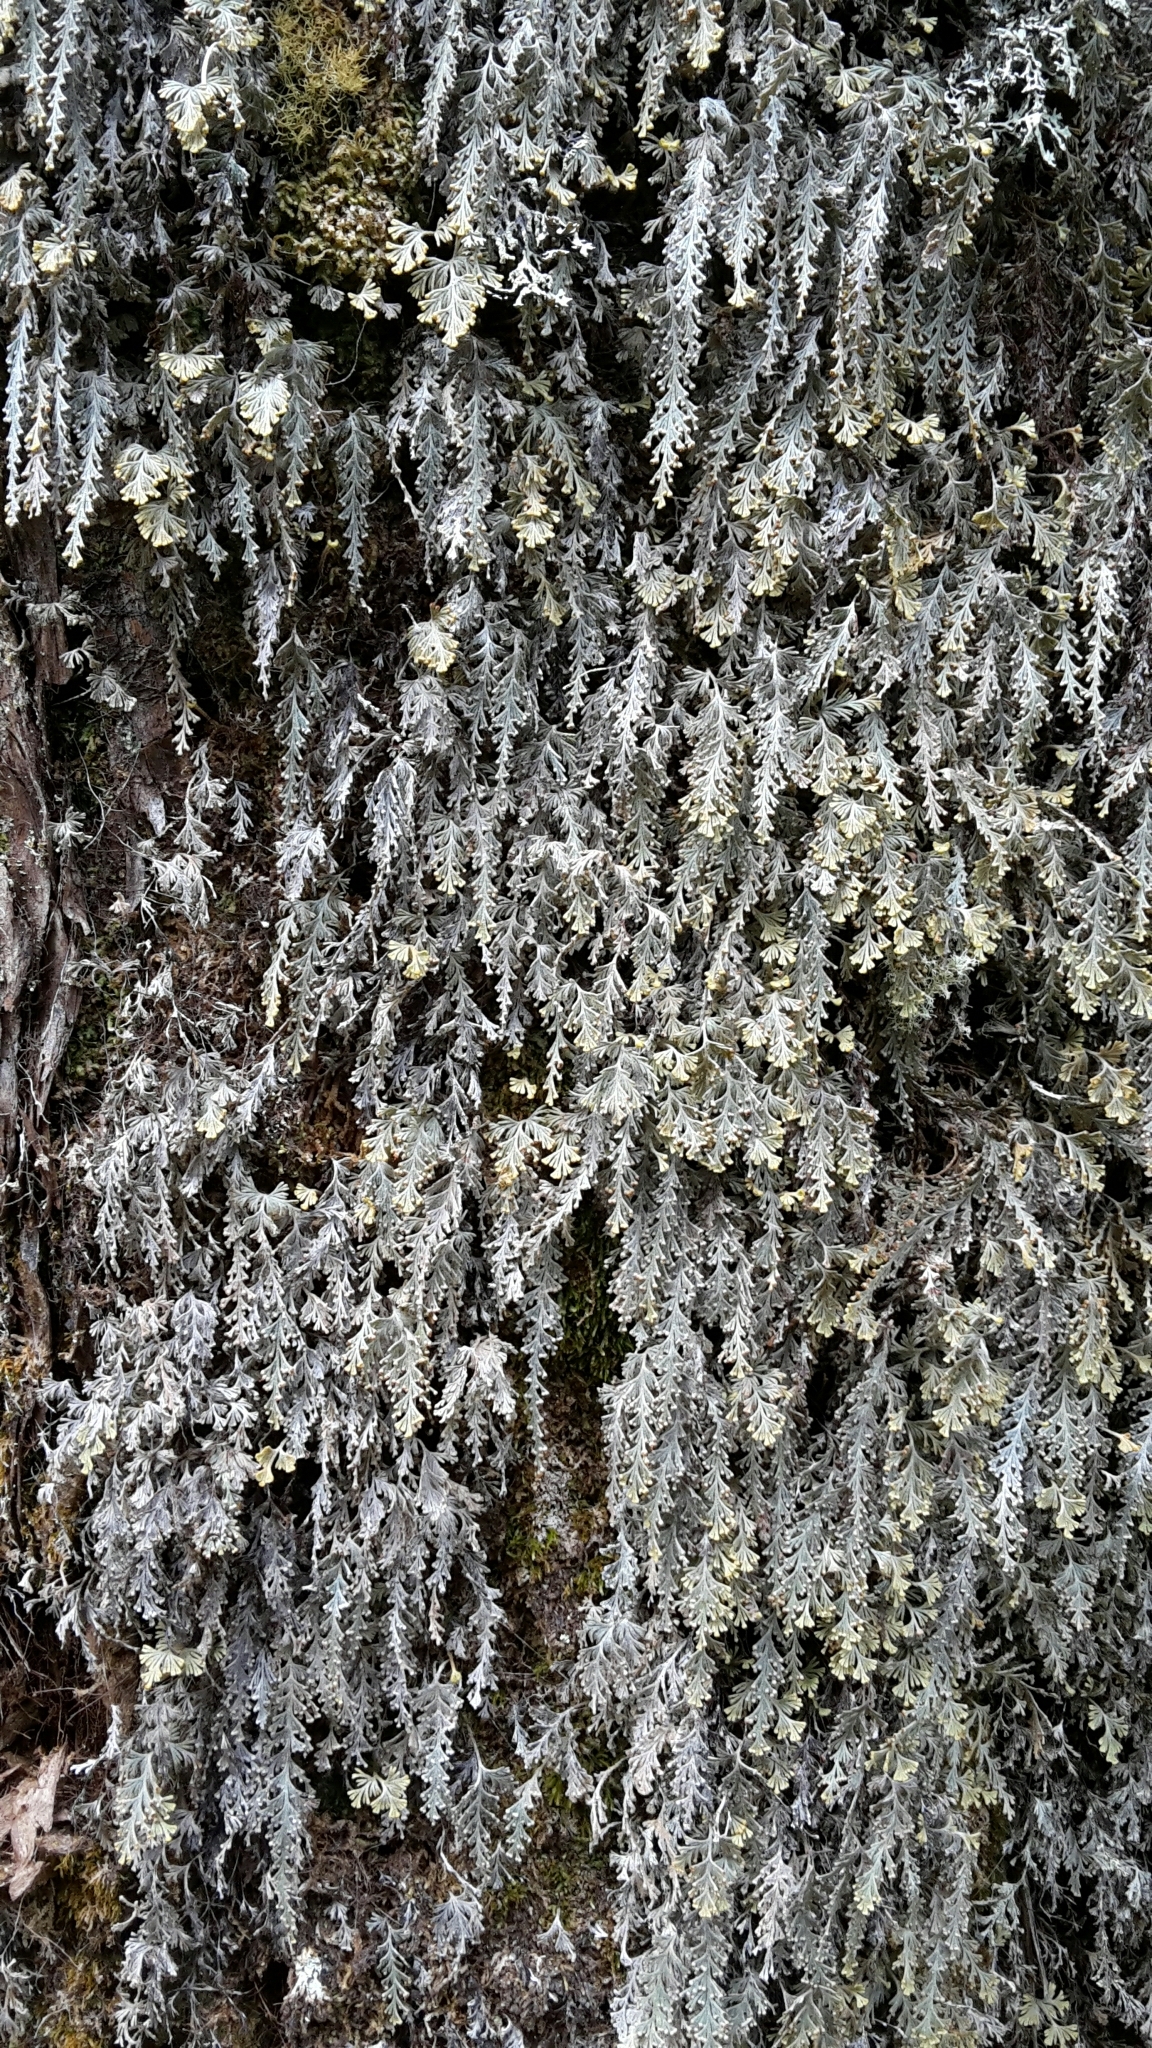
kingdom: Plantae
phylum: Tracheophyta
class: Polypodiopsida
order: Hymenophyllales
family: Hymenophyllaceae
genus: Hymenophyllum
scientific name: Hymenophyllum malingii
